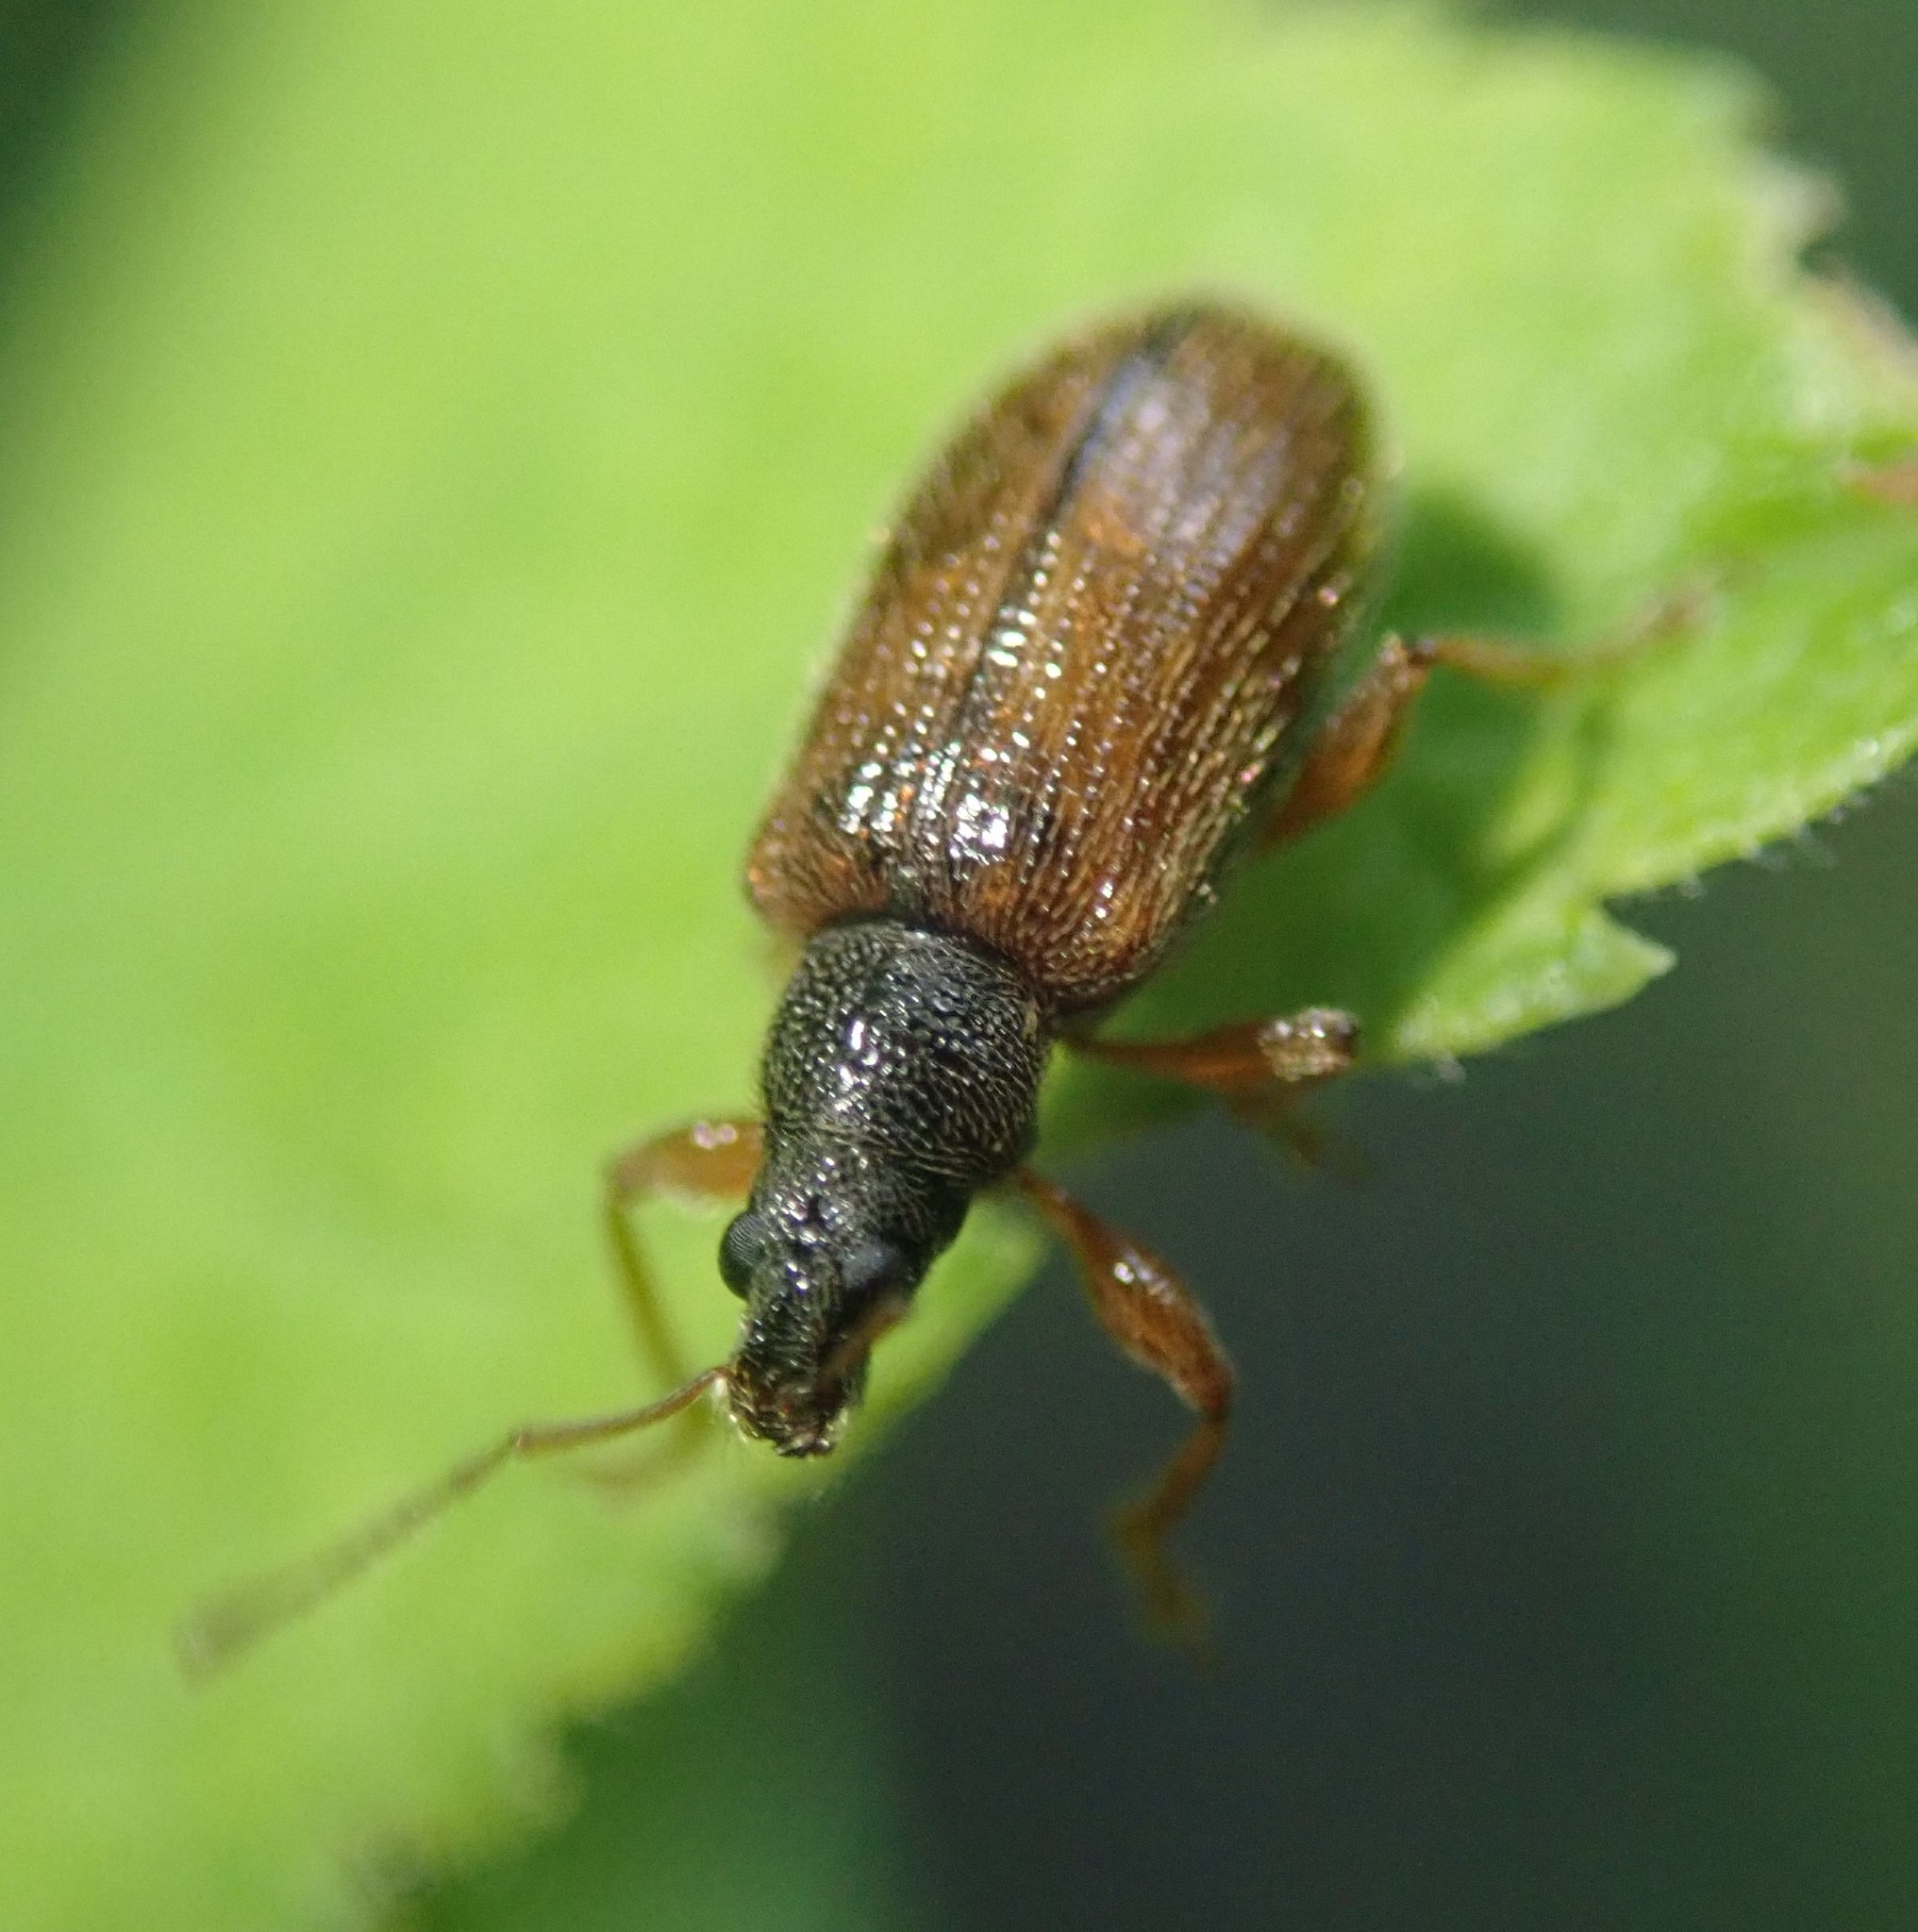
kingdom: Animalia
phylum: Arthropoda
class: Insecta
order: Coleoptera
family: Curculionidae
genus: Phyllobius
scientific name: Phyllobius oblongus
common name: Brown leaf weevil
